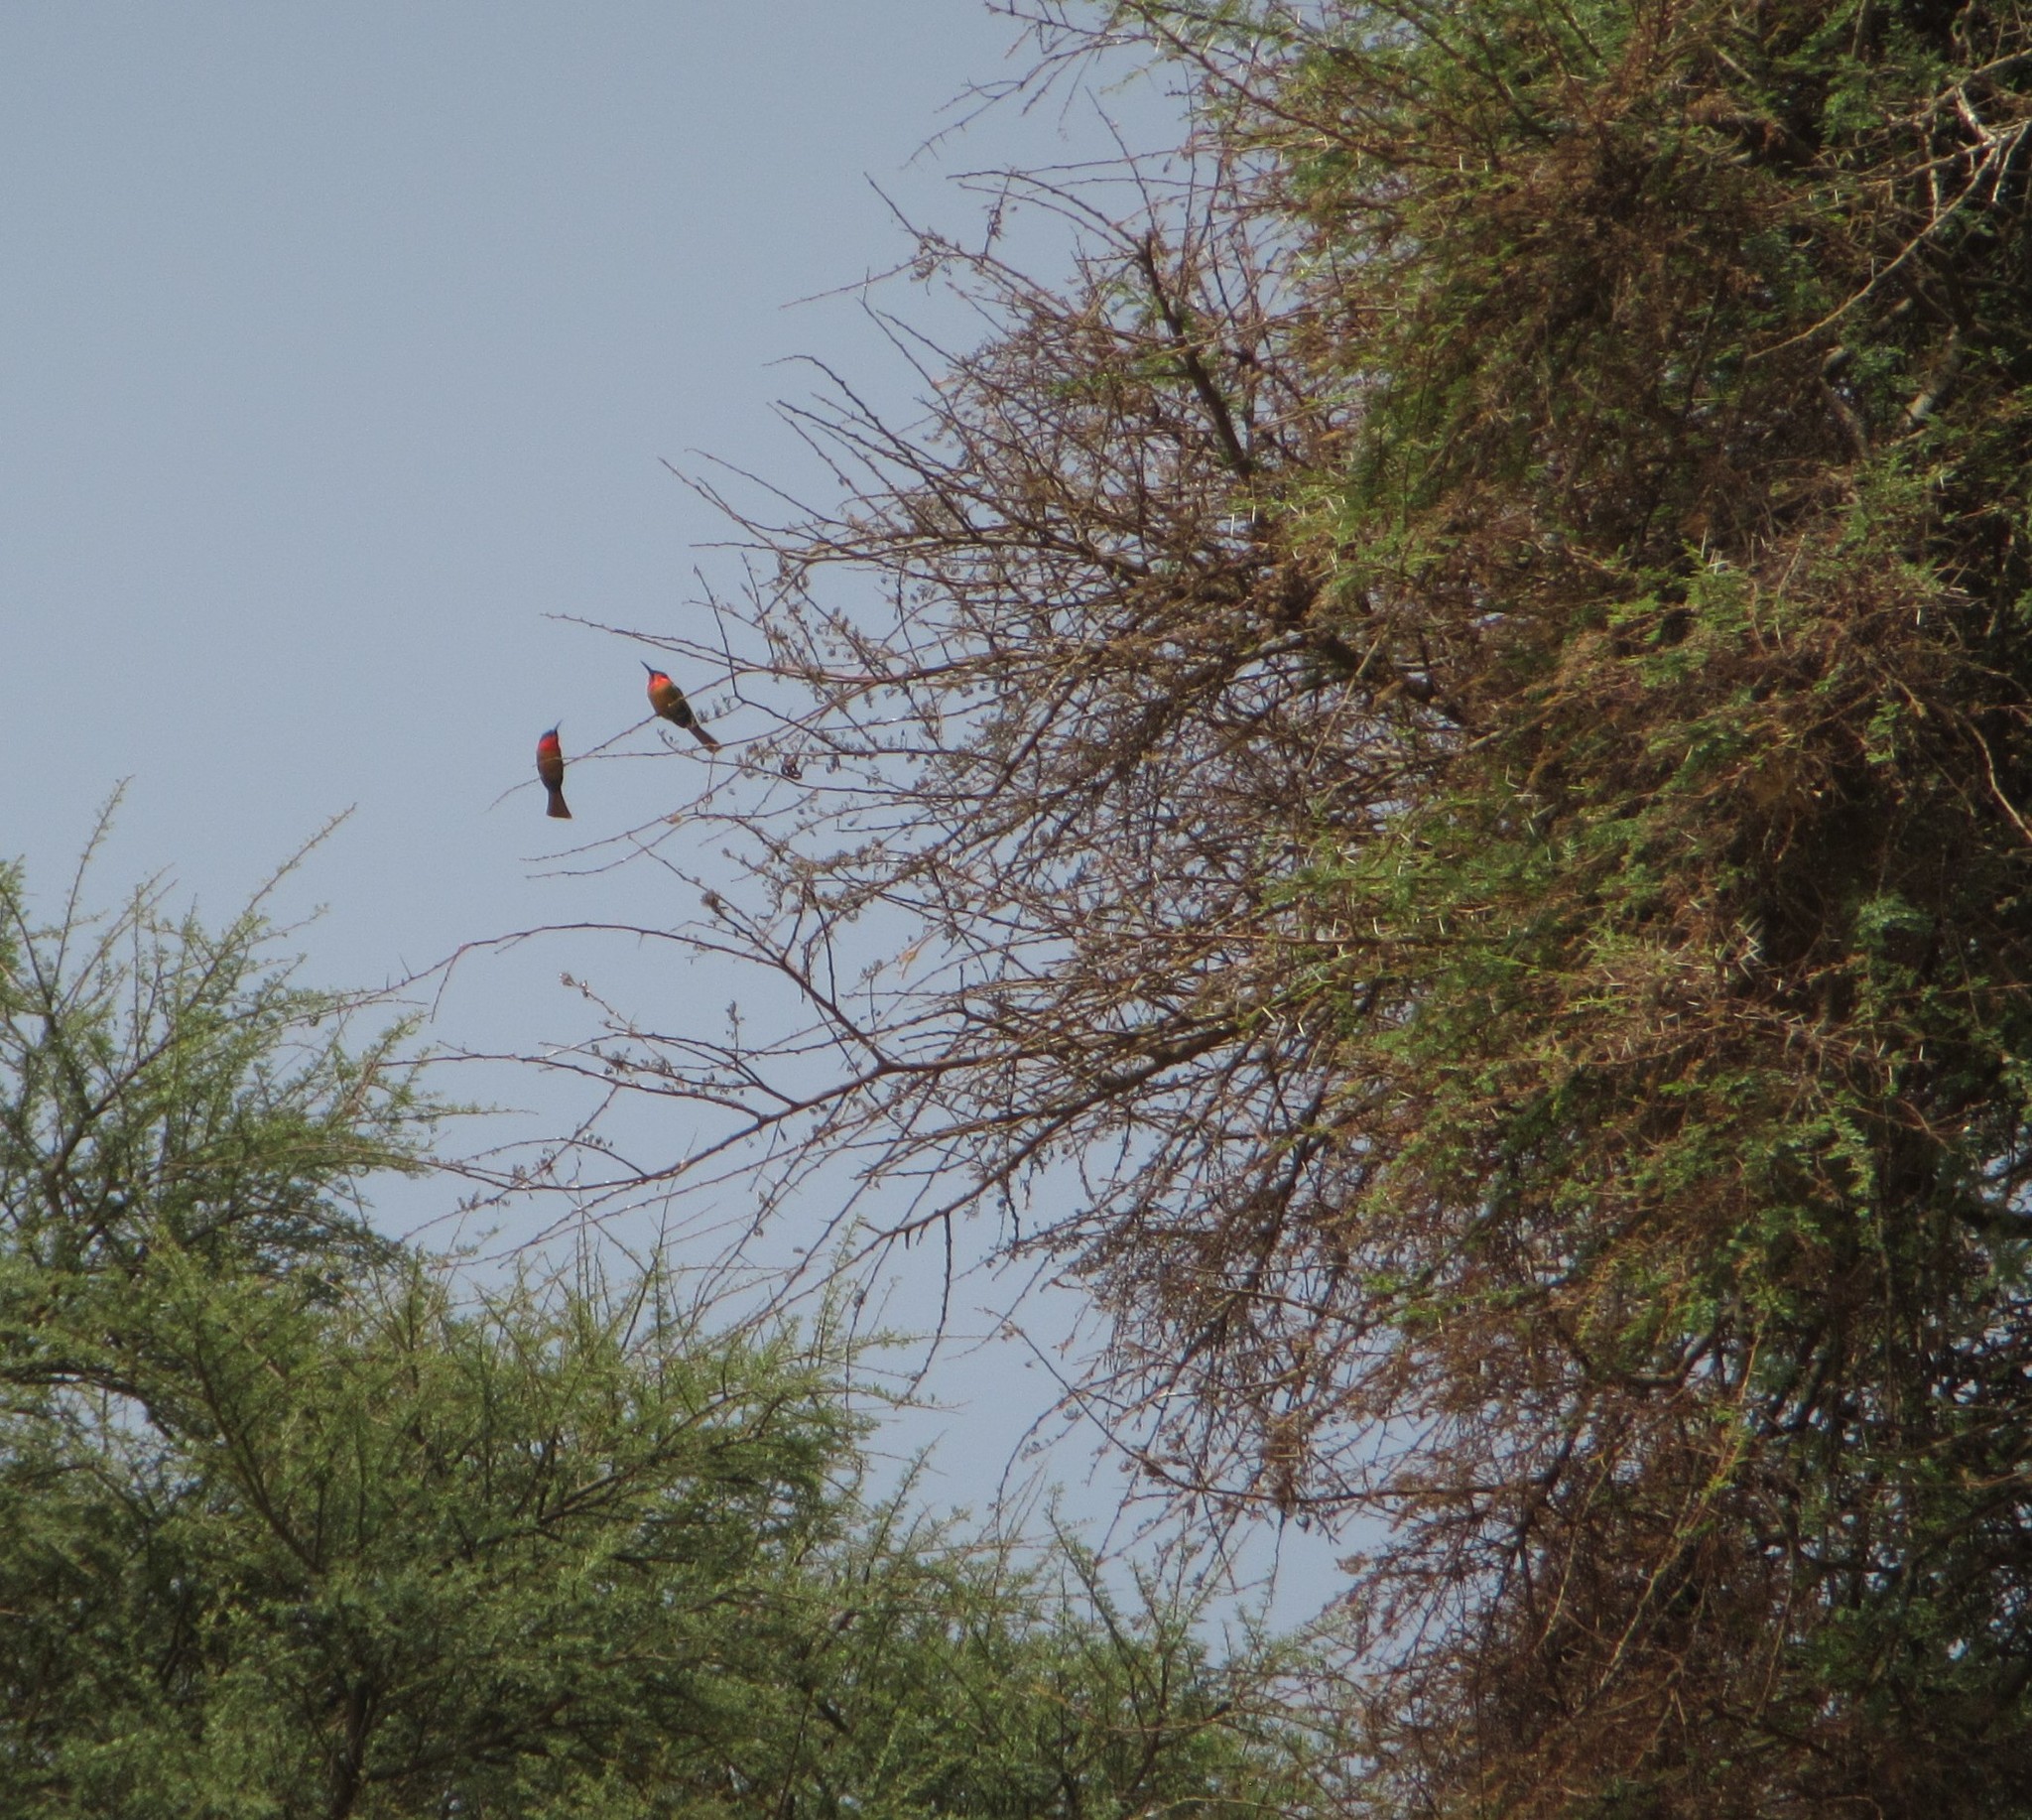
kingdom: Animalia
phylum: Chordata
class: Aves
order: Coraciiformes
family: Meropidae
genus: Merops
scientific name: Merops bulocki
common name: Red-throated bee-eater
